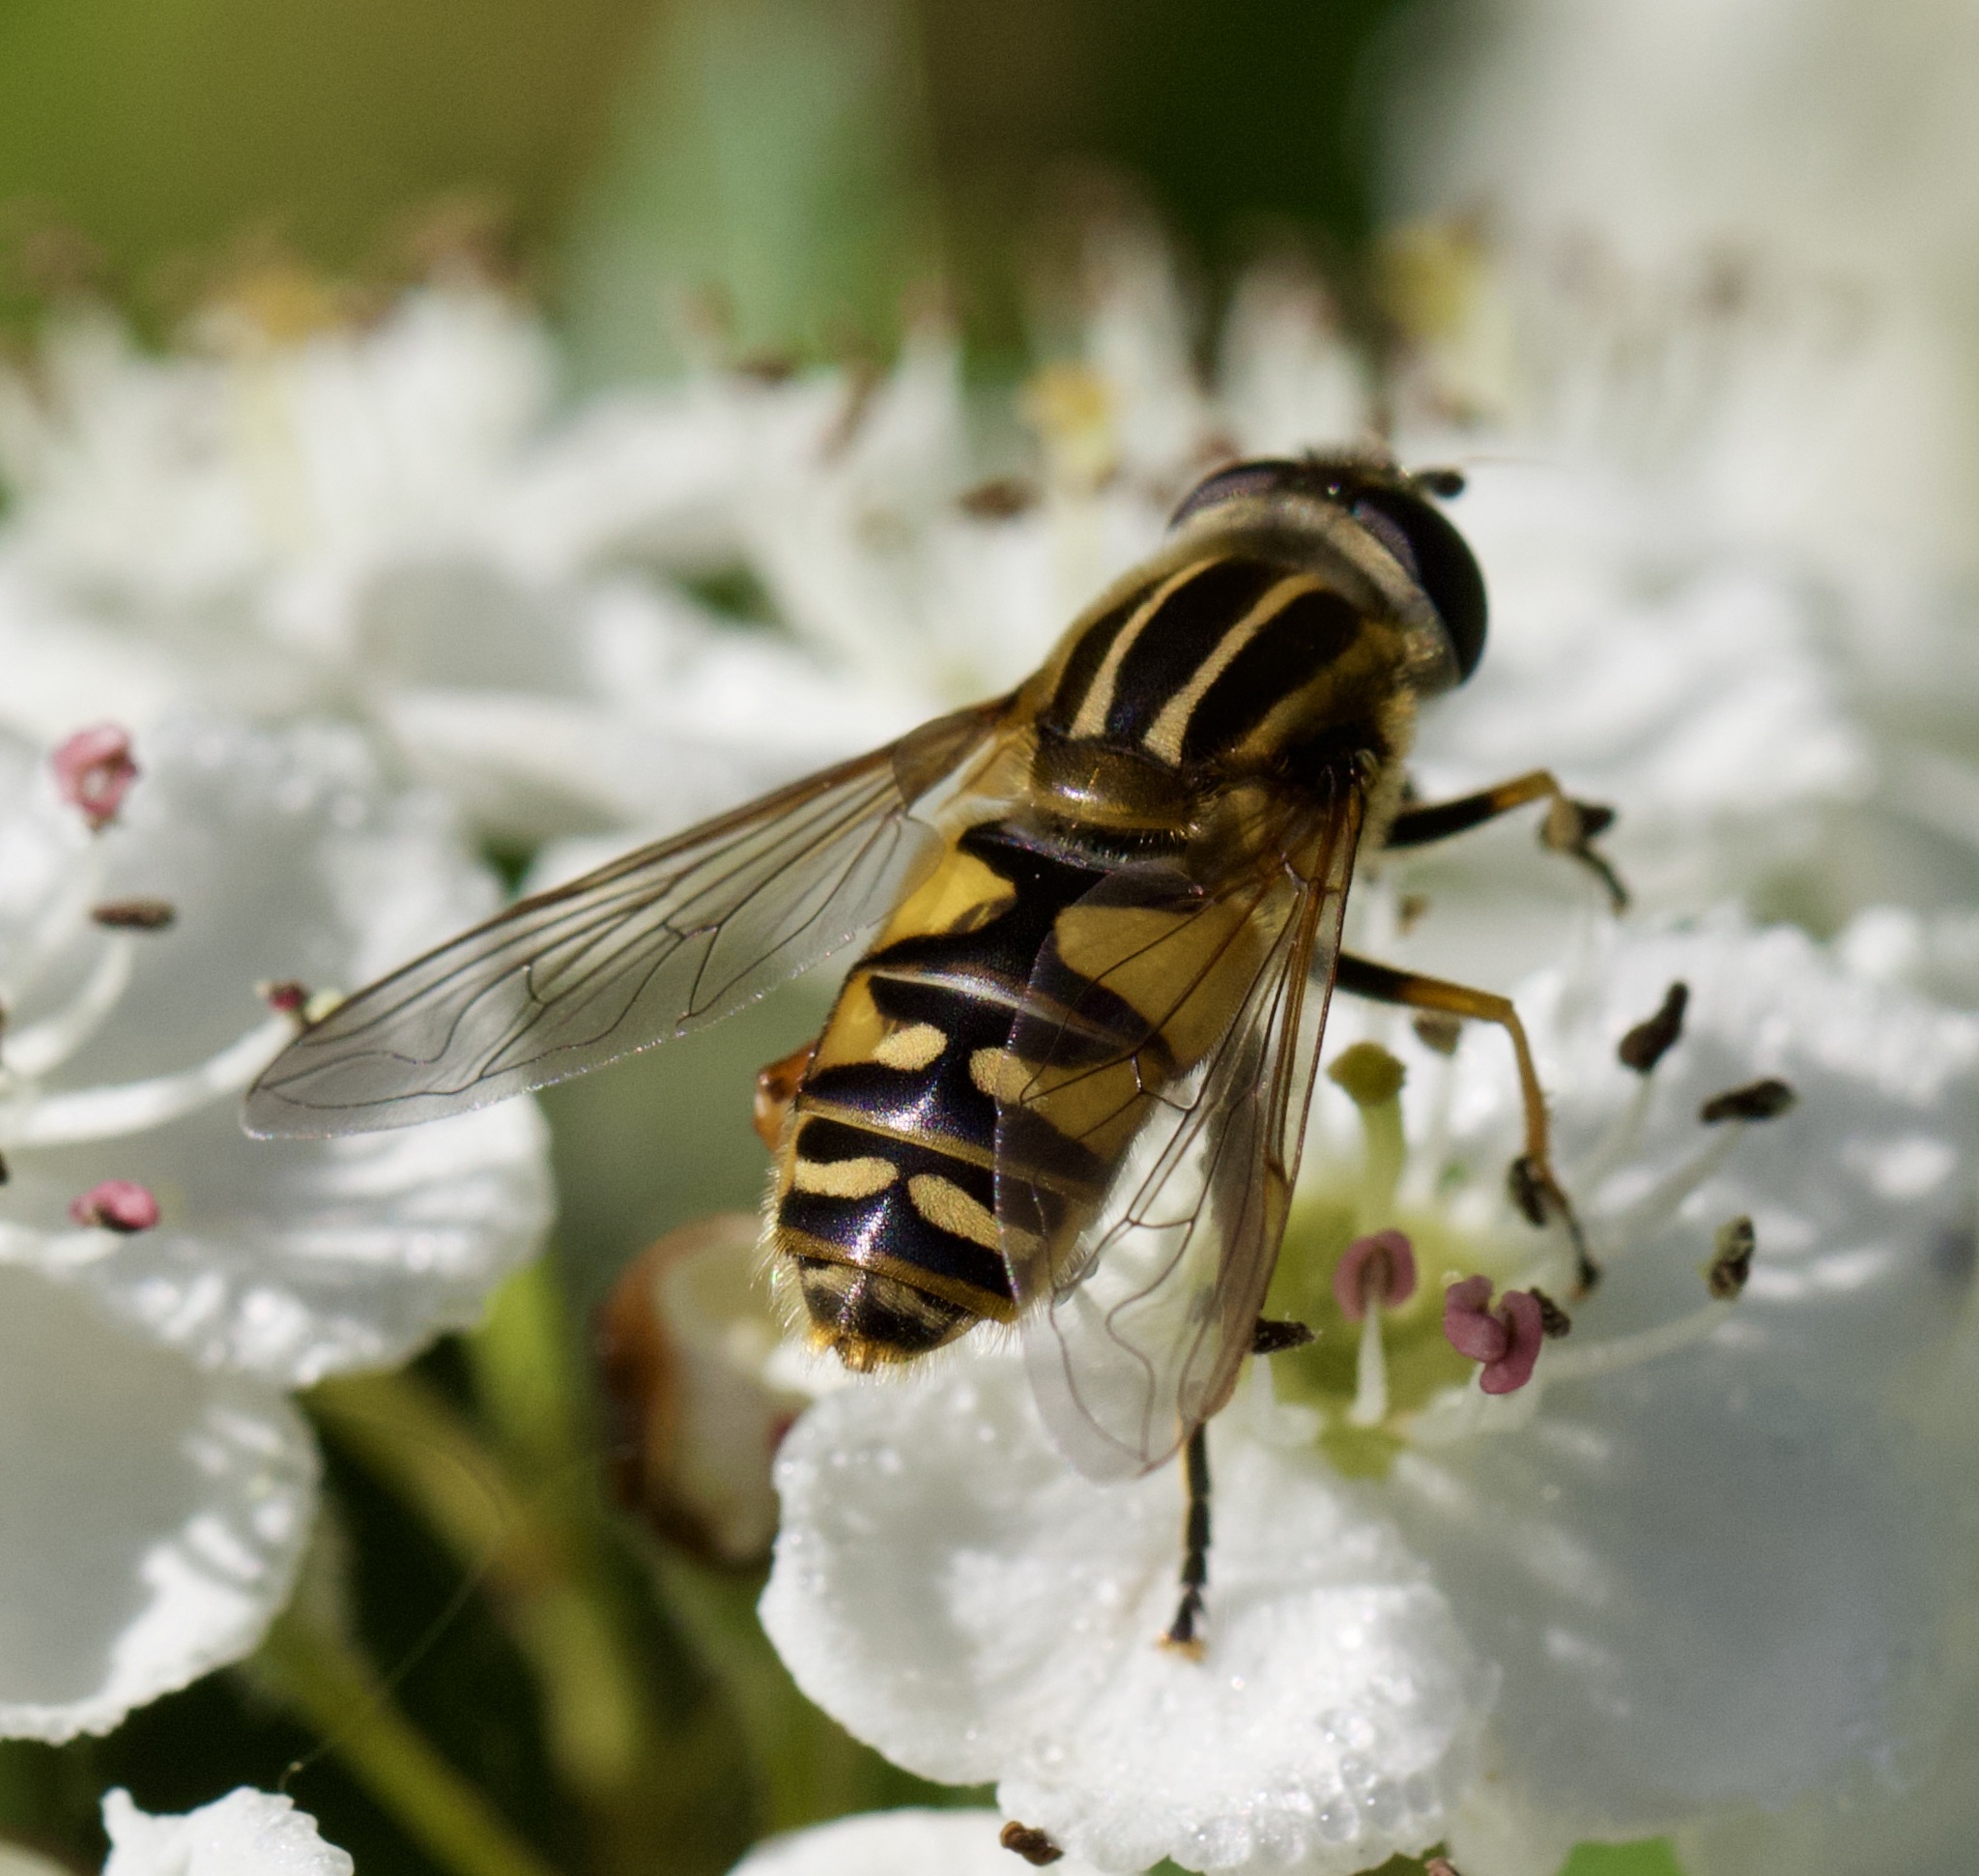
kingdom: Animalia
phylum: Arthropoda
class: Insecta
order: Diptera
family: Syrphidae
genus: Helophilus
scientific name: Helophilus pendulus
